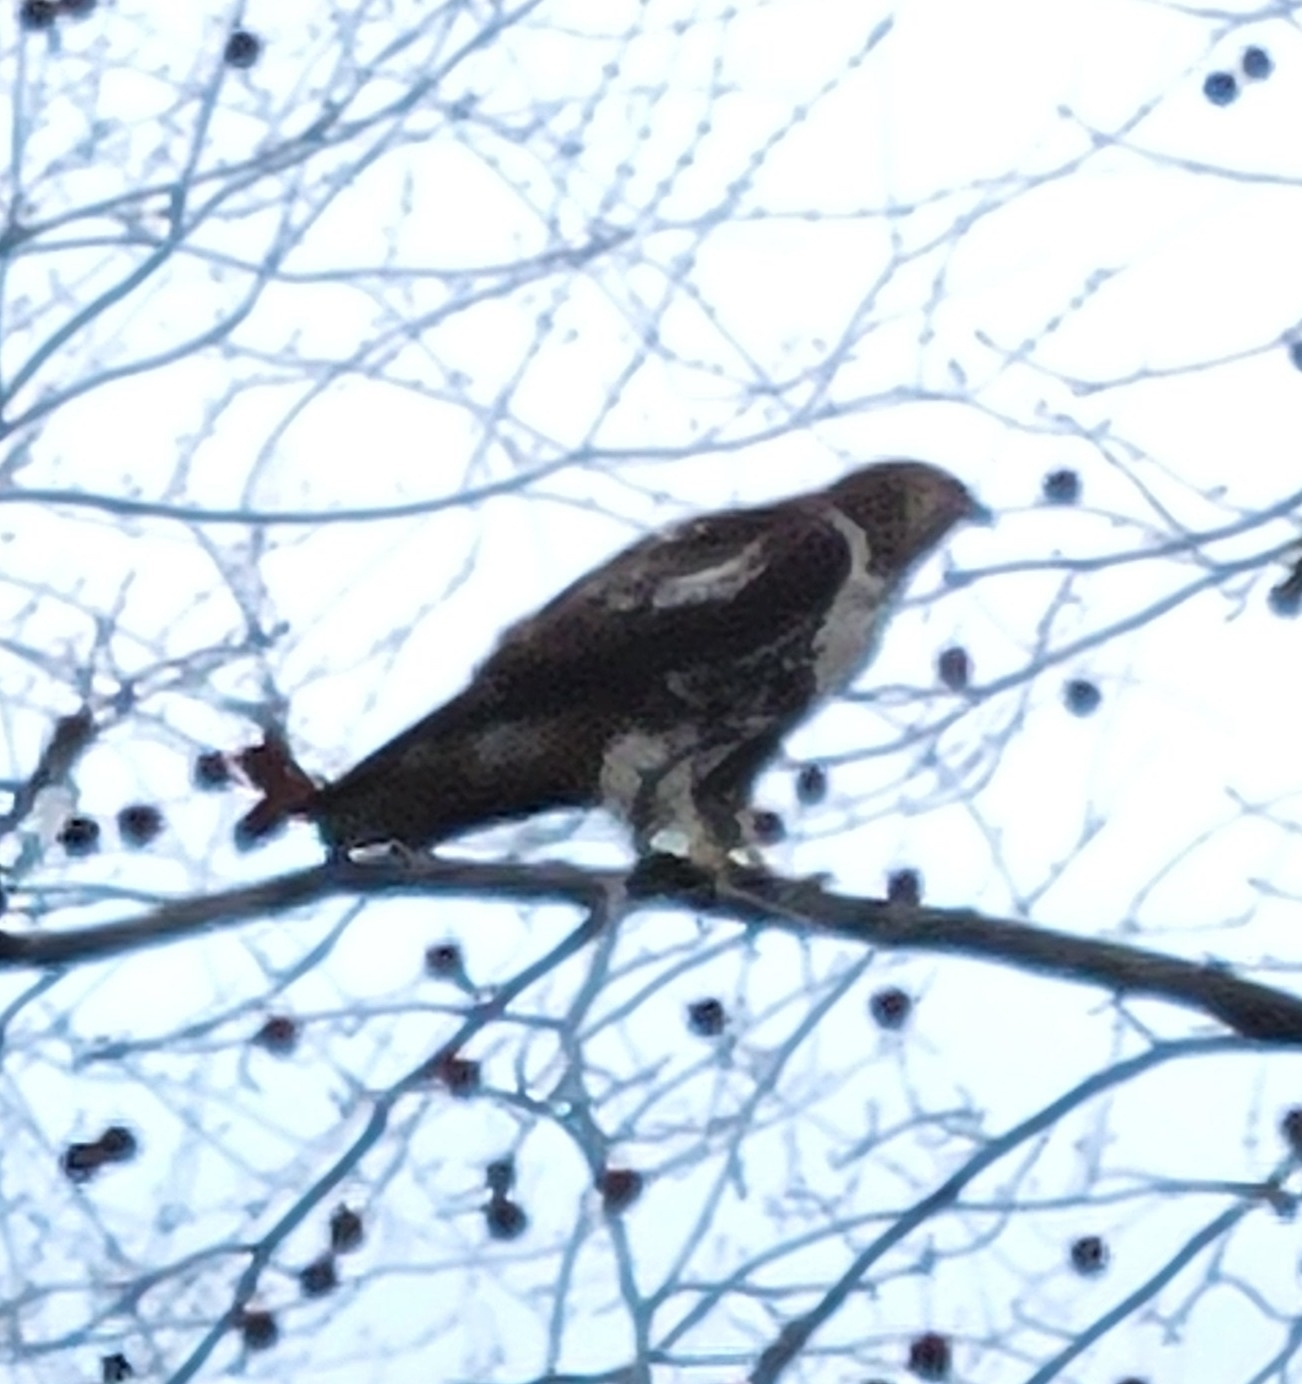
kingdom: Animalia
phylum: Chordata
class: Aves
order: Accipitriformes
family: Accipitridae
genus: Buteo
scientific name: Buteo jamaicensis
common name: Red-tailed hawk
